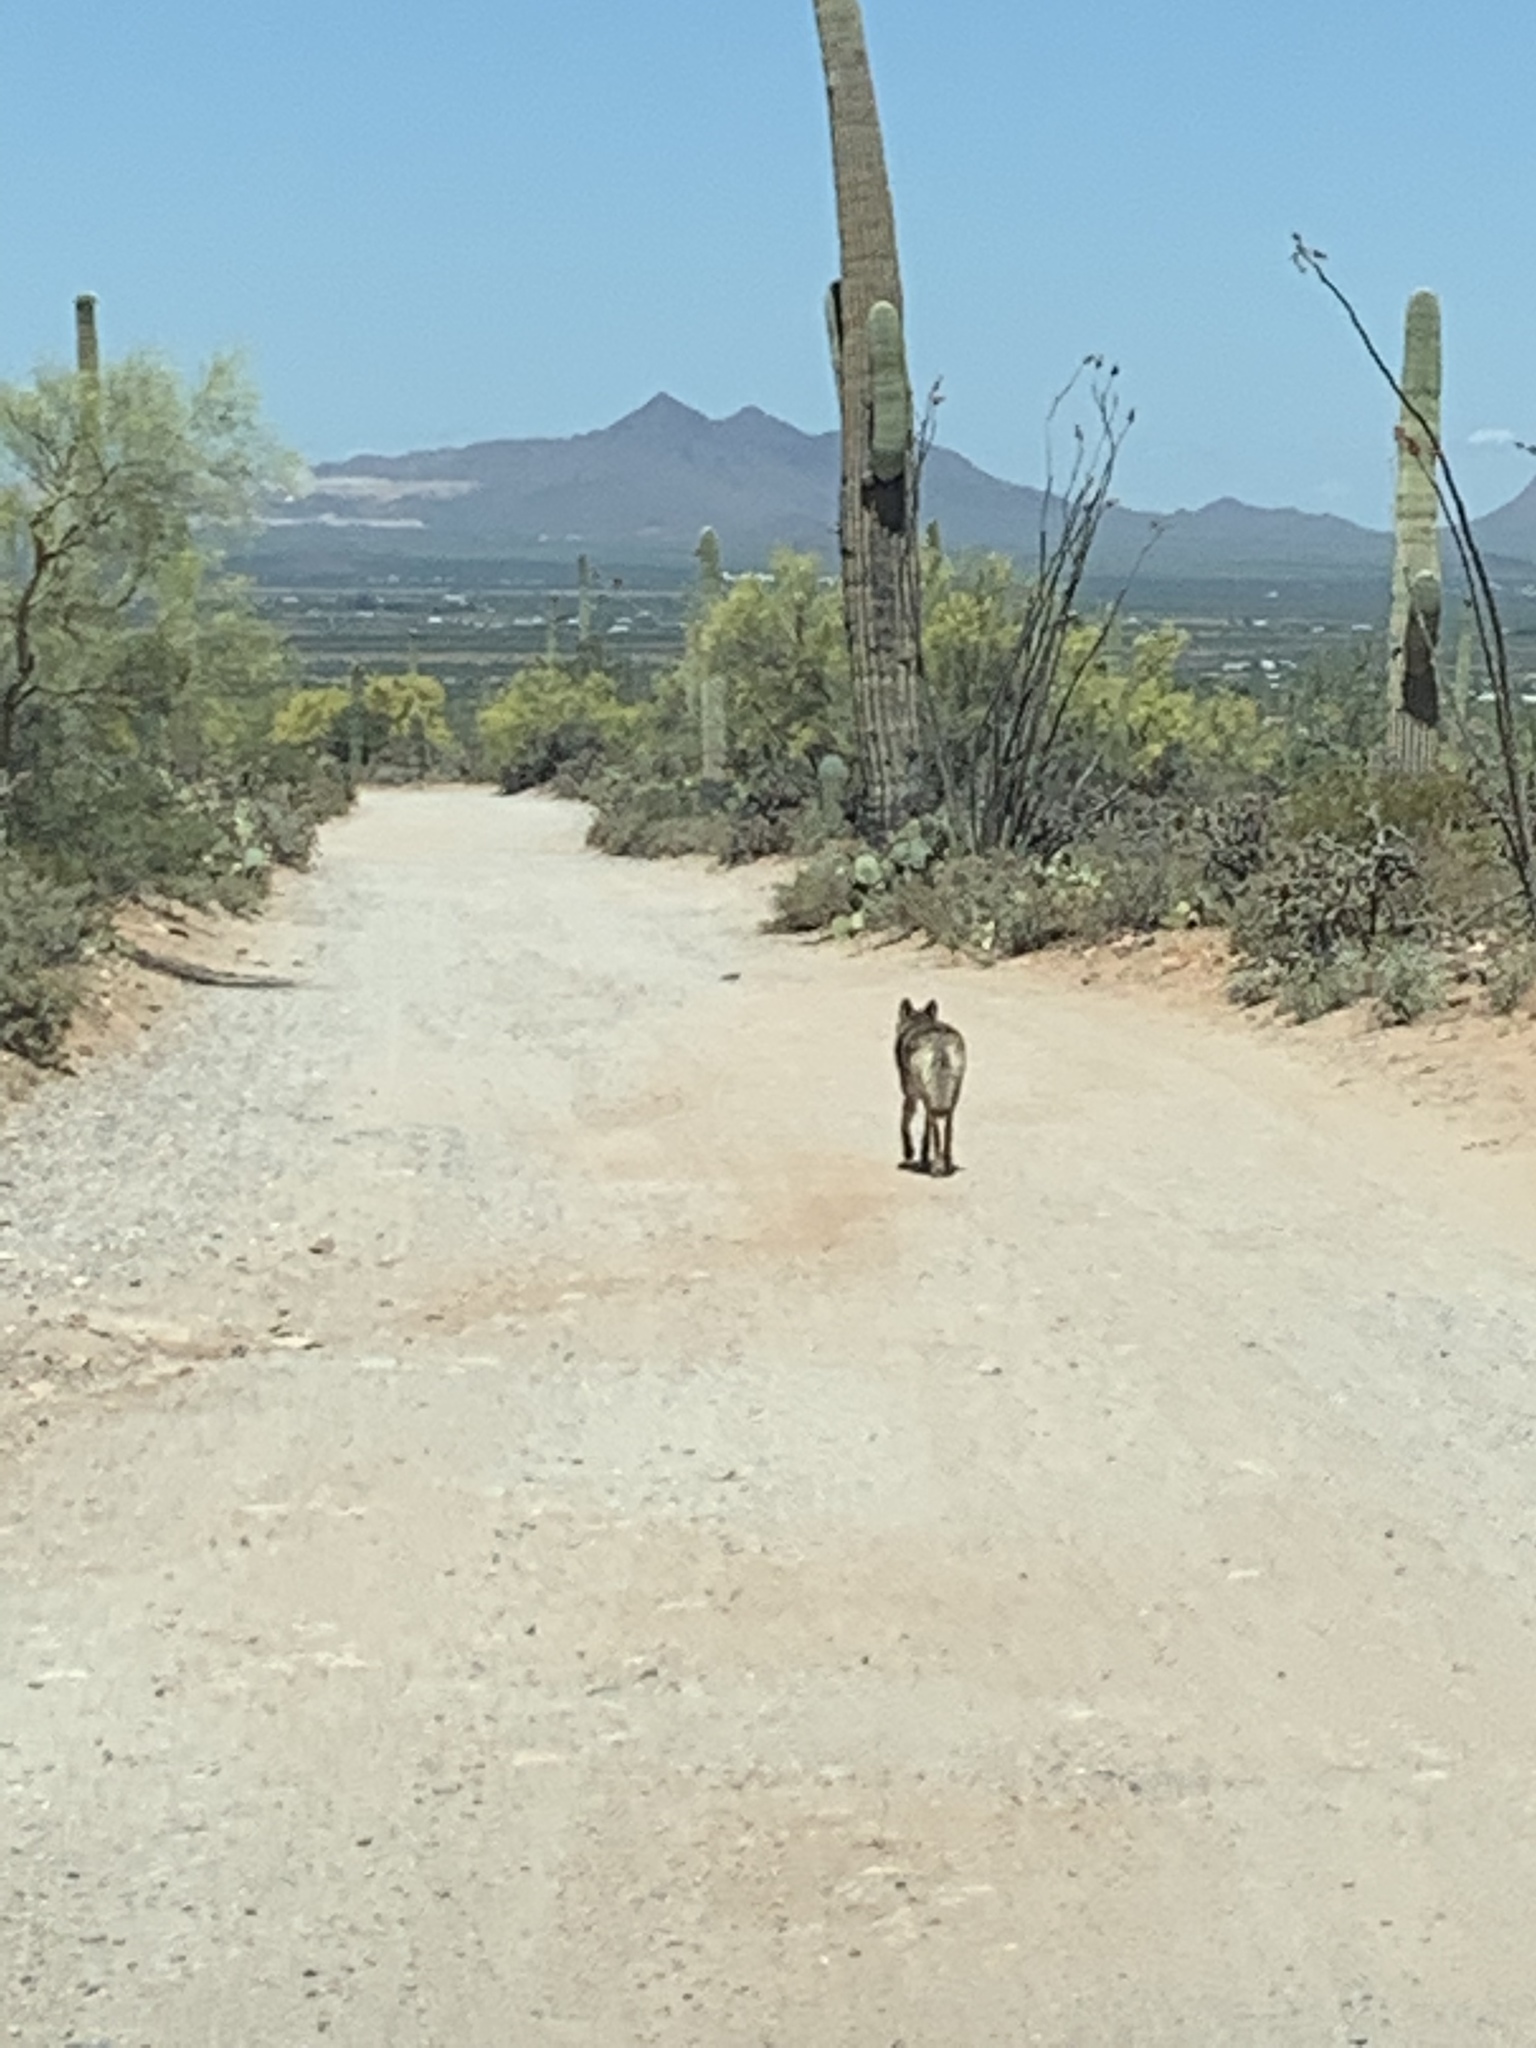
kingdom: Animalia
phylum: Chordata
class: Mammalia
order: Carnivora
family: Canidae
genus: Canis
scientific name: Canis latrans
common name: Coyote
